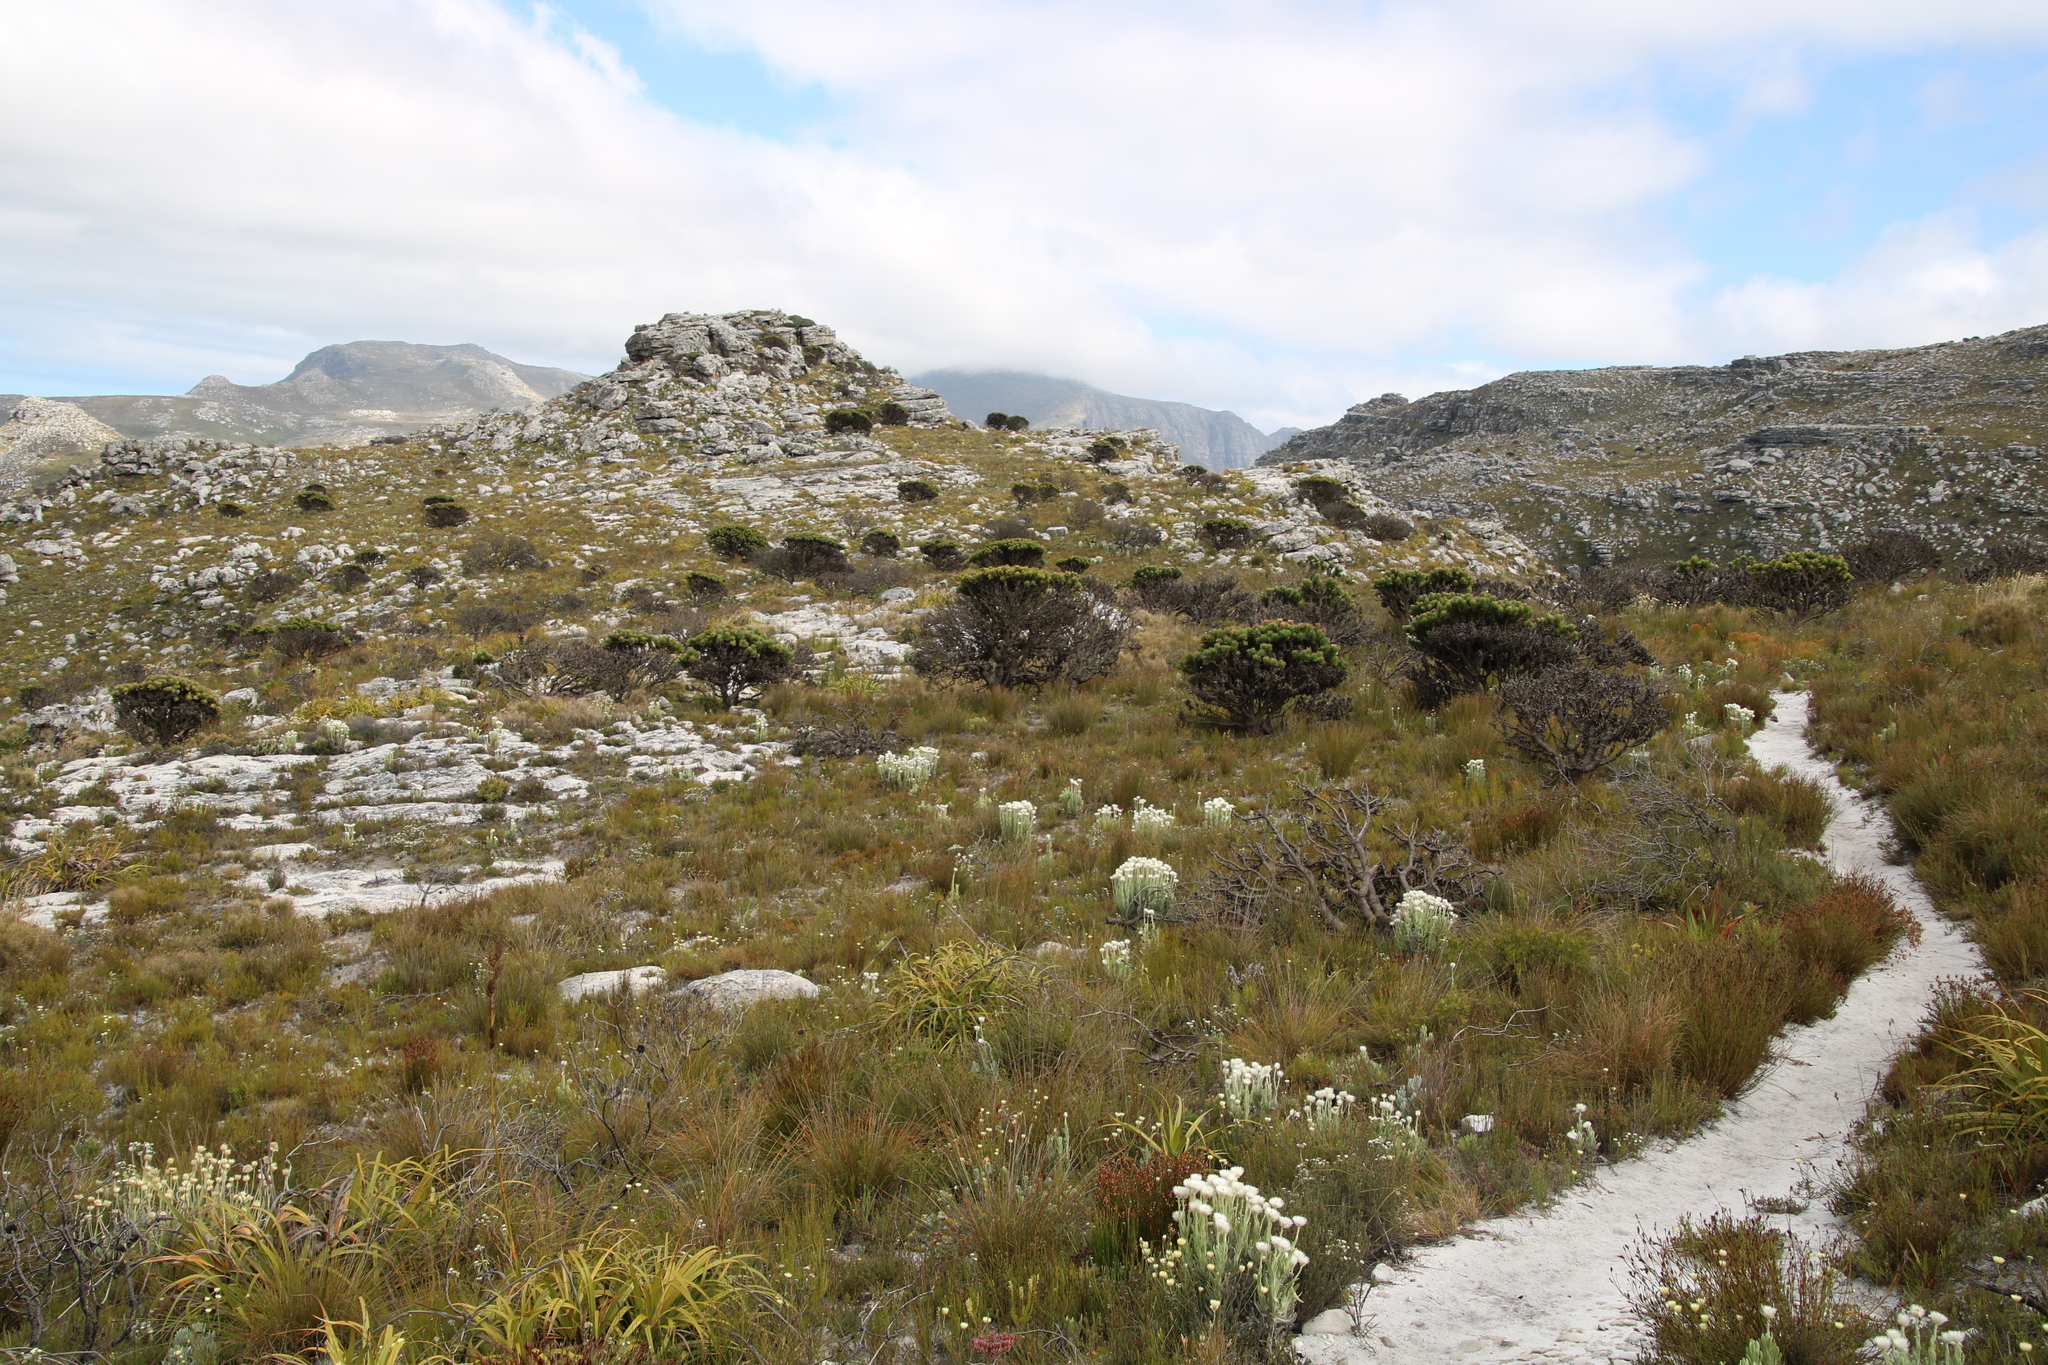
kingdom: Plantae
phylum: Tracheophyta
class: Magnoliopsida
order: Proteales
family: Proteaceae
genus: Mimetes
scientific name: Mimetes fimbriifolius
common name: Fringed bottlebrush
